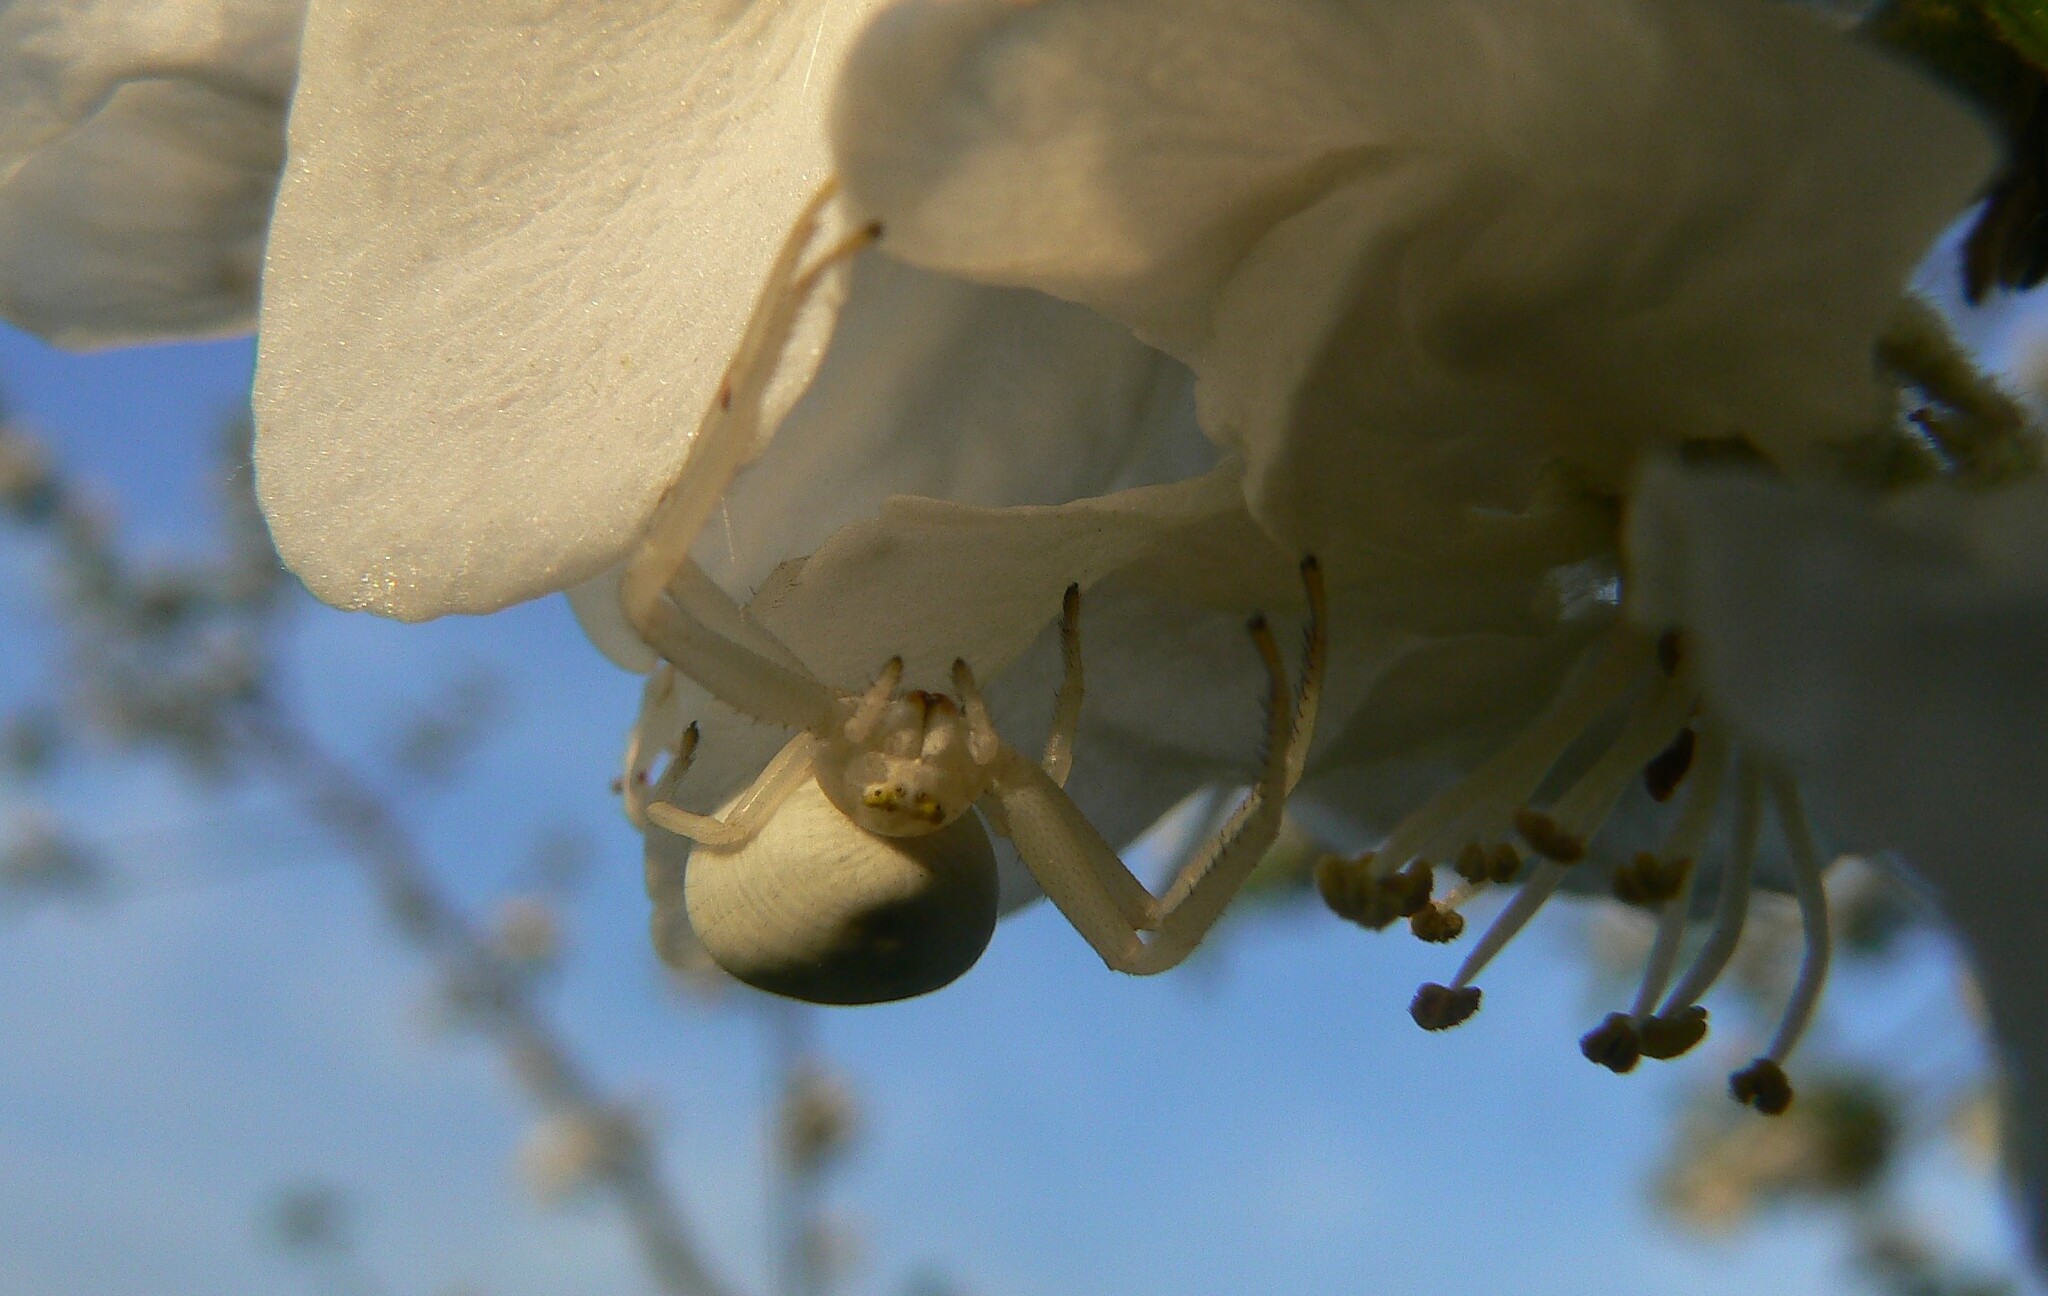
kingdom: Animalia
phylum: Arthropoda
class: Arachnida
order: Araneae
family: Thomisidae
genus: Misumena
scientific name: Misumena vatia
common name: Goldenrod crab spider
